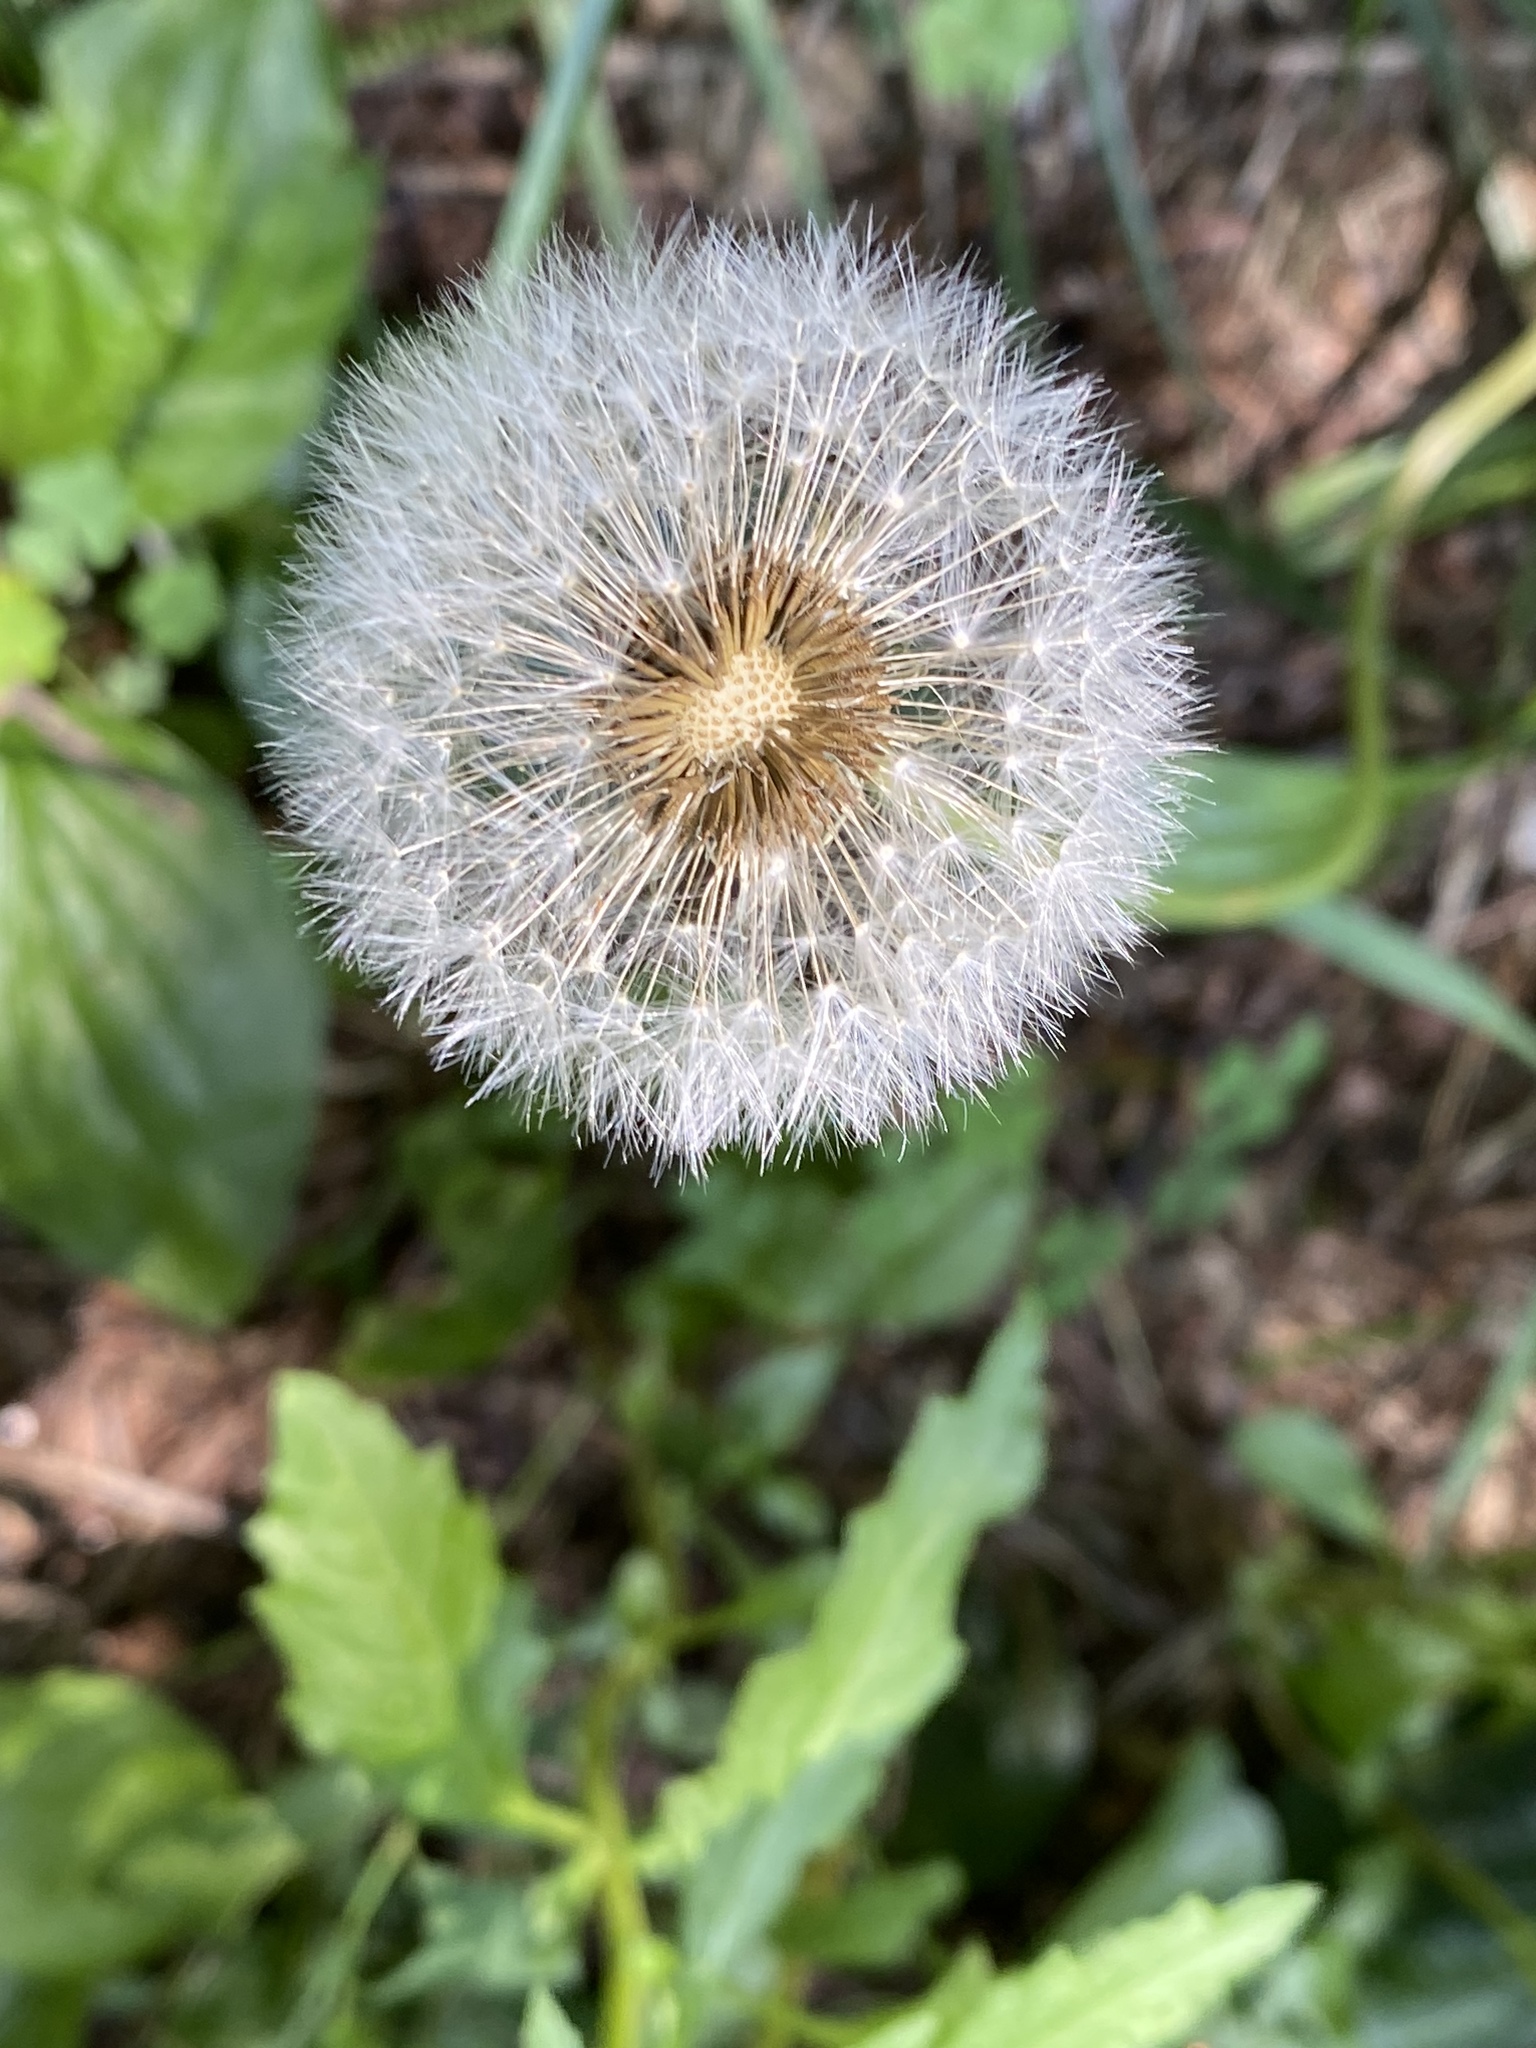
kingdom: Plantae
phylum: Tracheophyta
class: Magnoliopsida
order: Asterales
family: Asteraceae
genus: Taraxacum
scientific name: Taraxacum officinale
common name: Common dandelion
